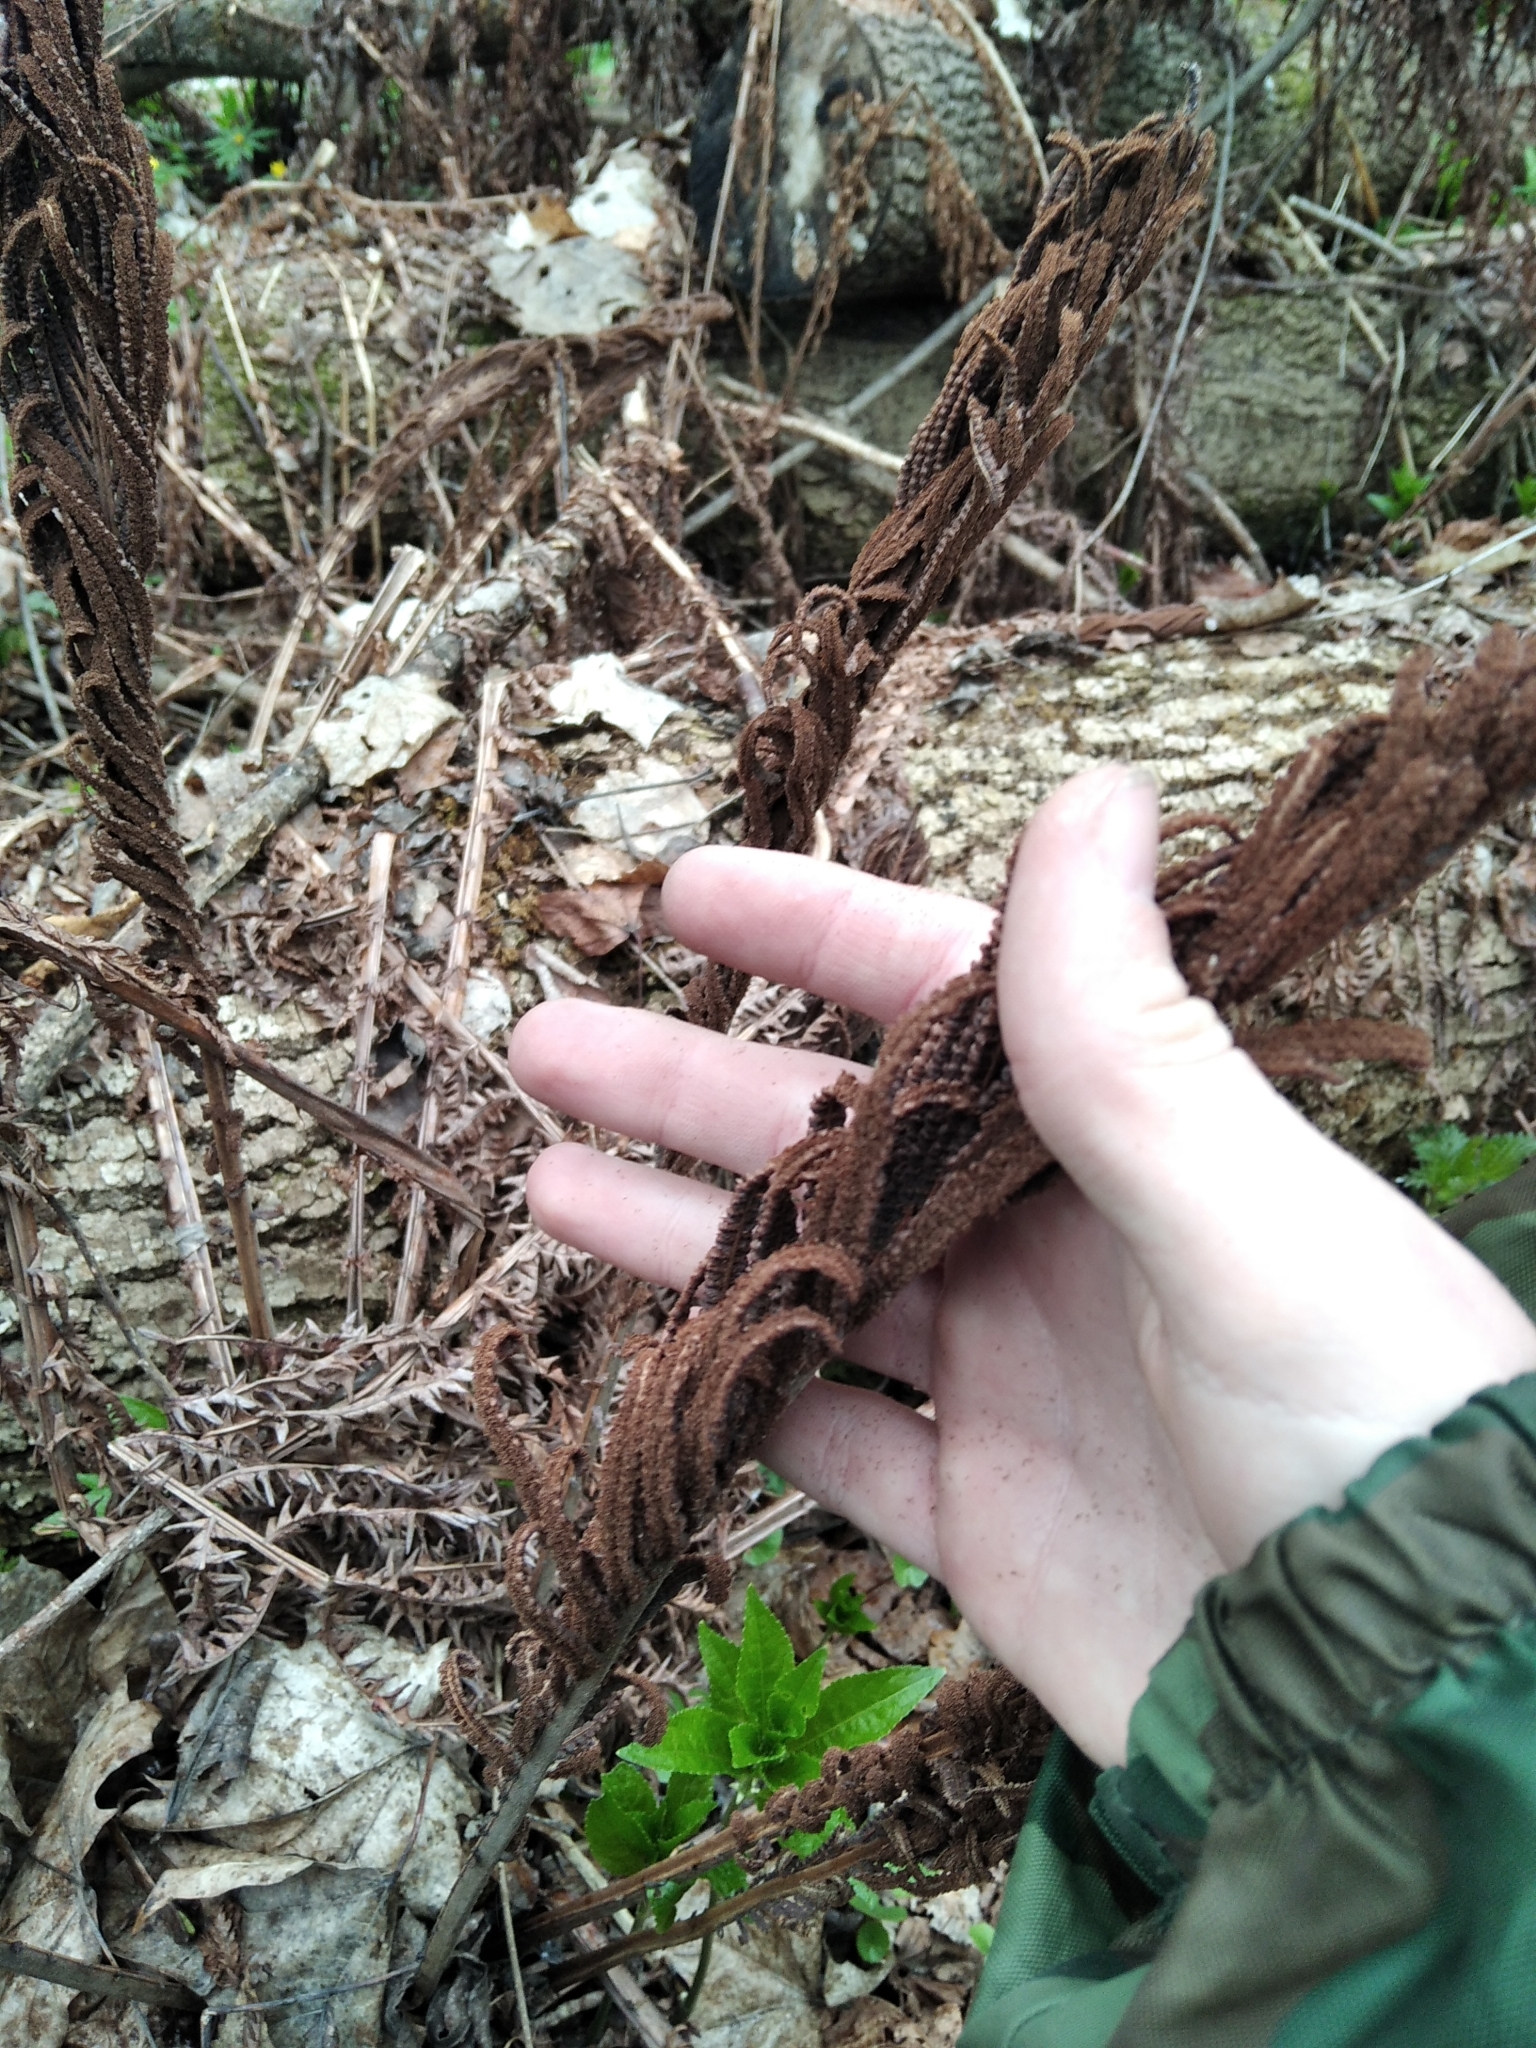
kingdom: Plantae
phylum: Tracheophyta
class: Polypodiopsida
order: Polypodiales
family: Onocleaceae
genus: Matteuccia
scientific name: Matteuccia struthiopteris
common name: Ostrich fern
